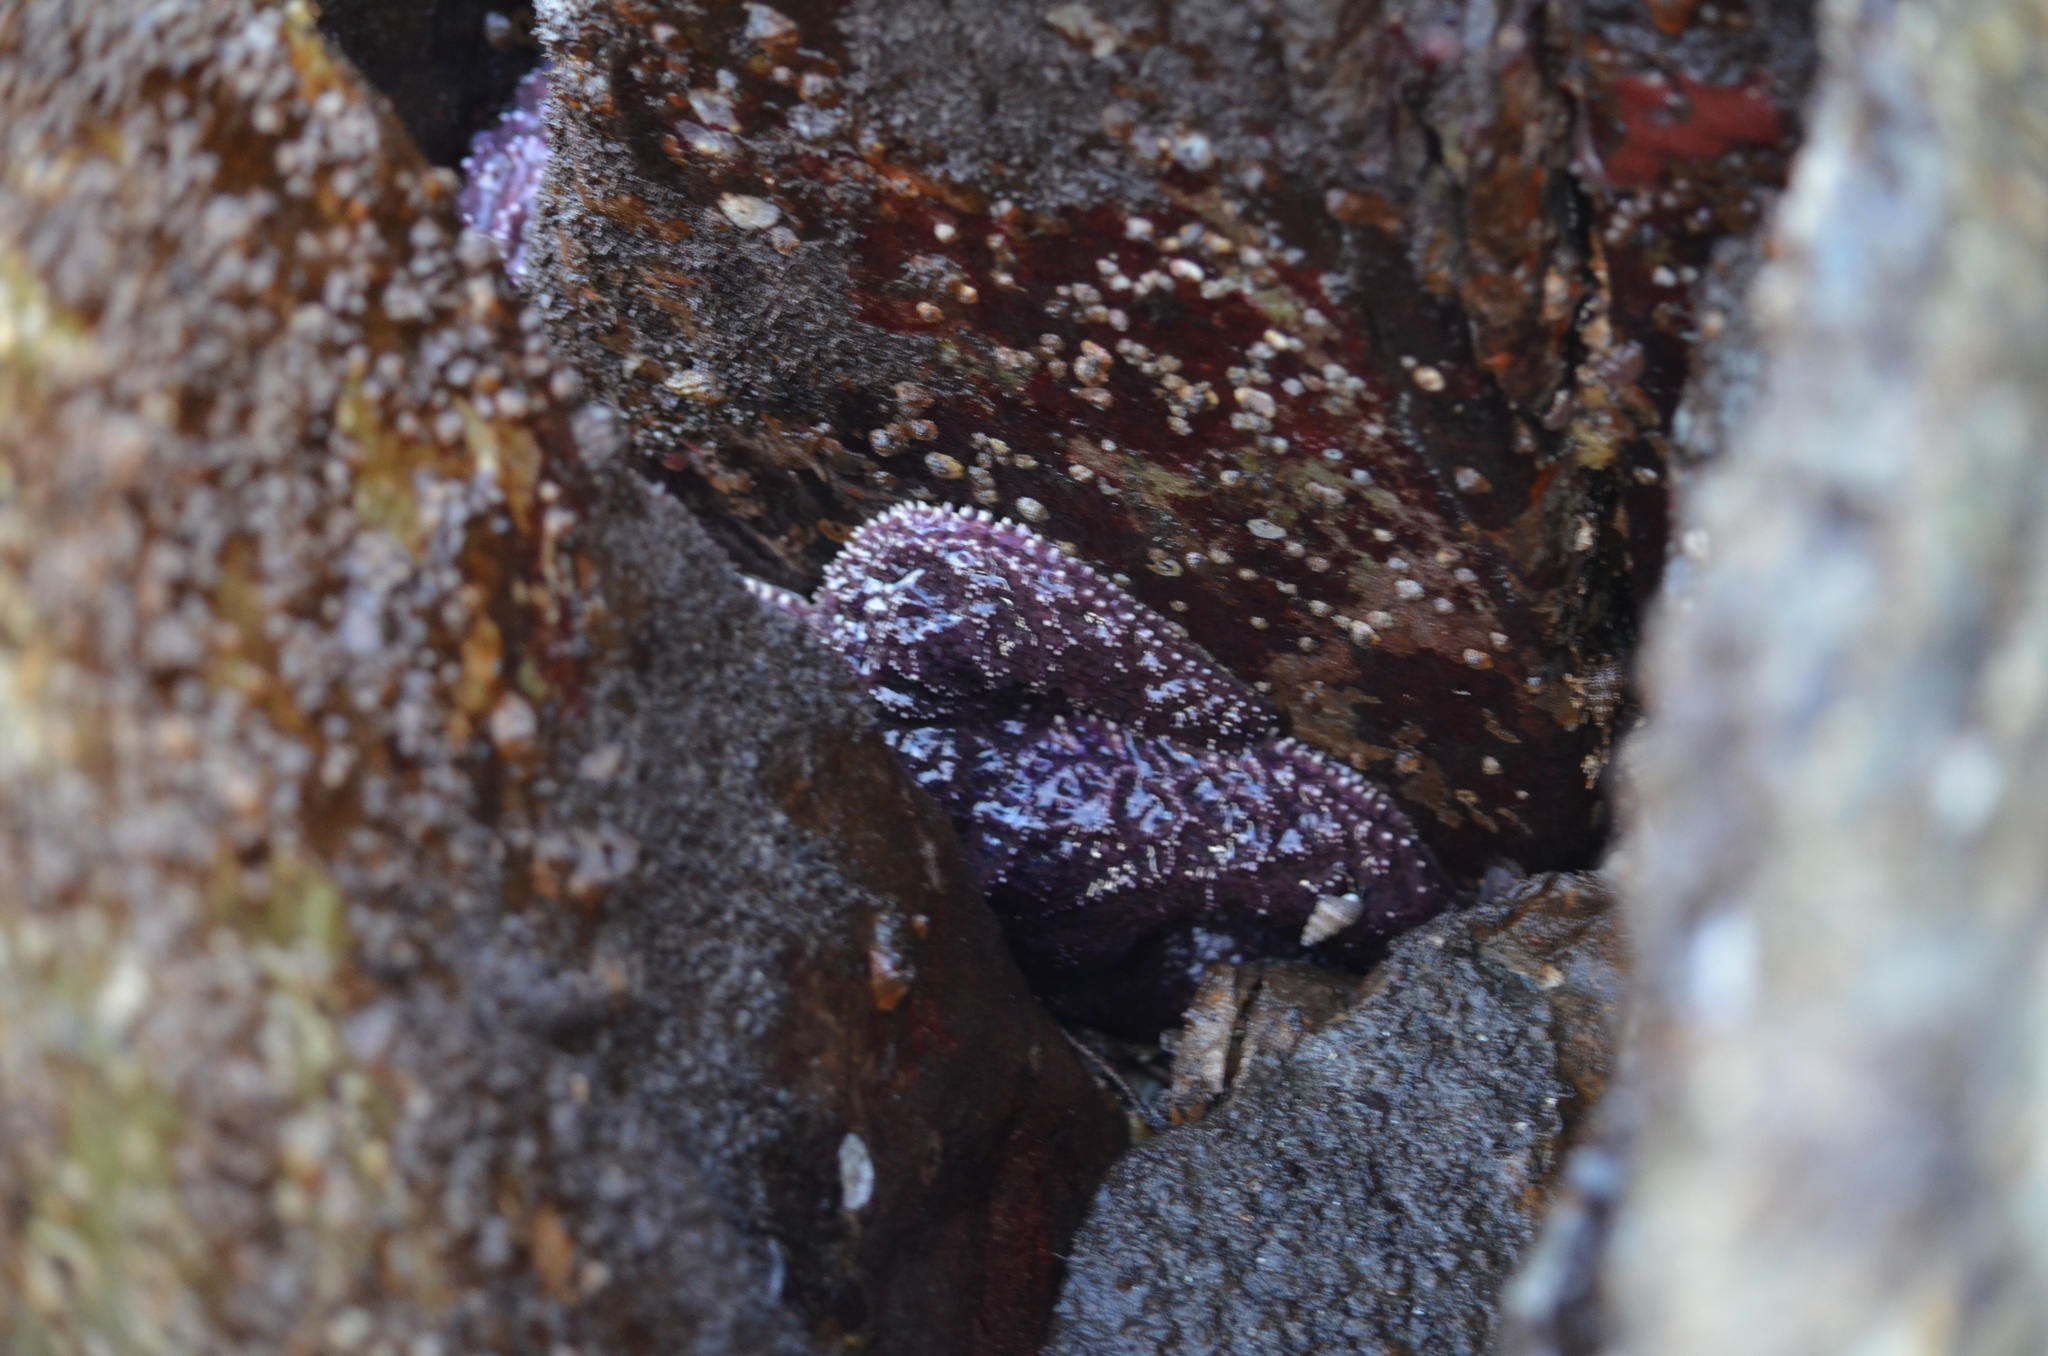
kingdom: Animalia
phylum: Echinodermata
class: Asteroidea
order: Forcipulatida
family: Asteriidae
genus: Pisaster
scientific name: Pisaster ochraceus
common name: Ochre stars
